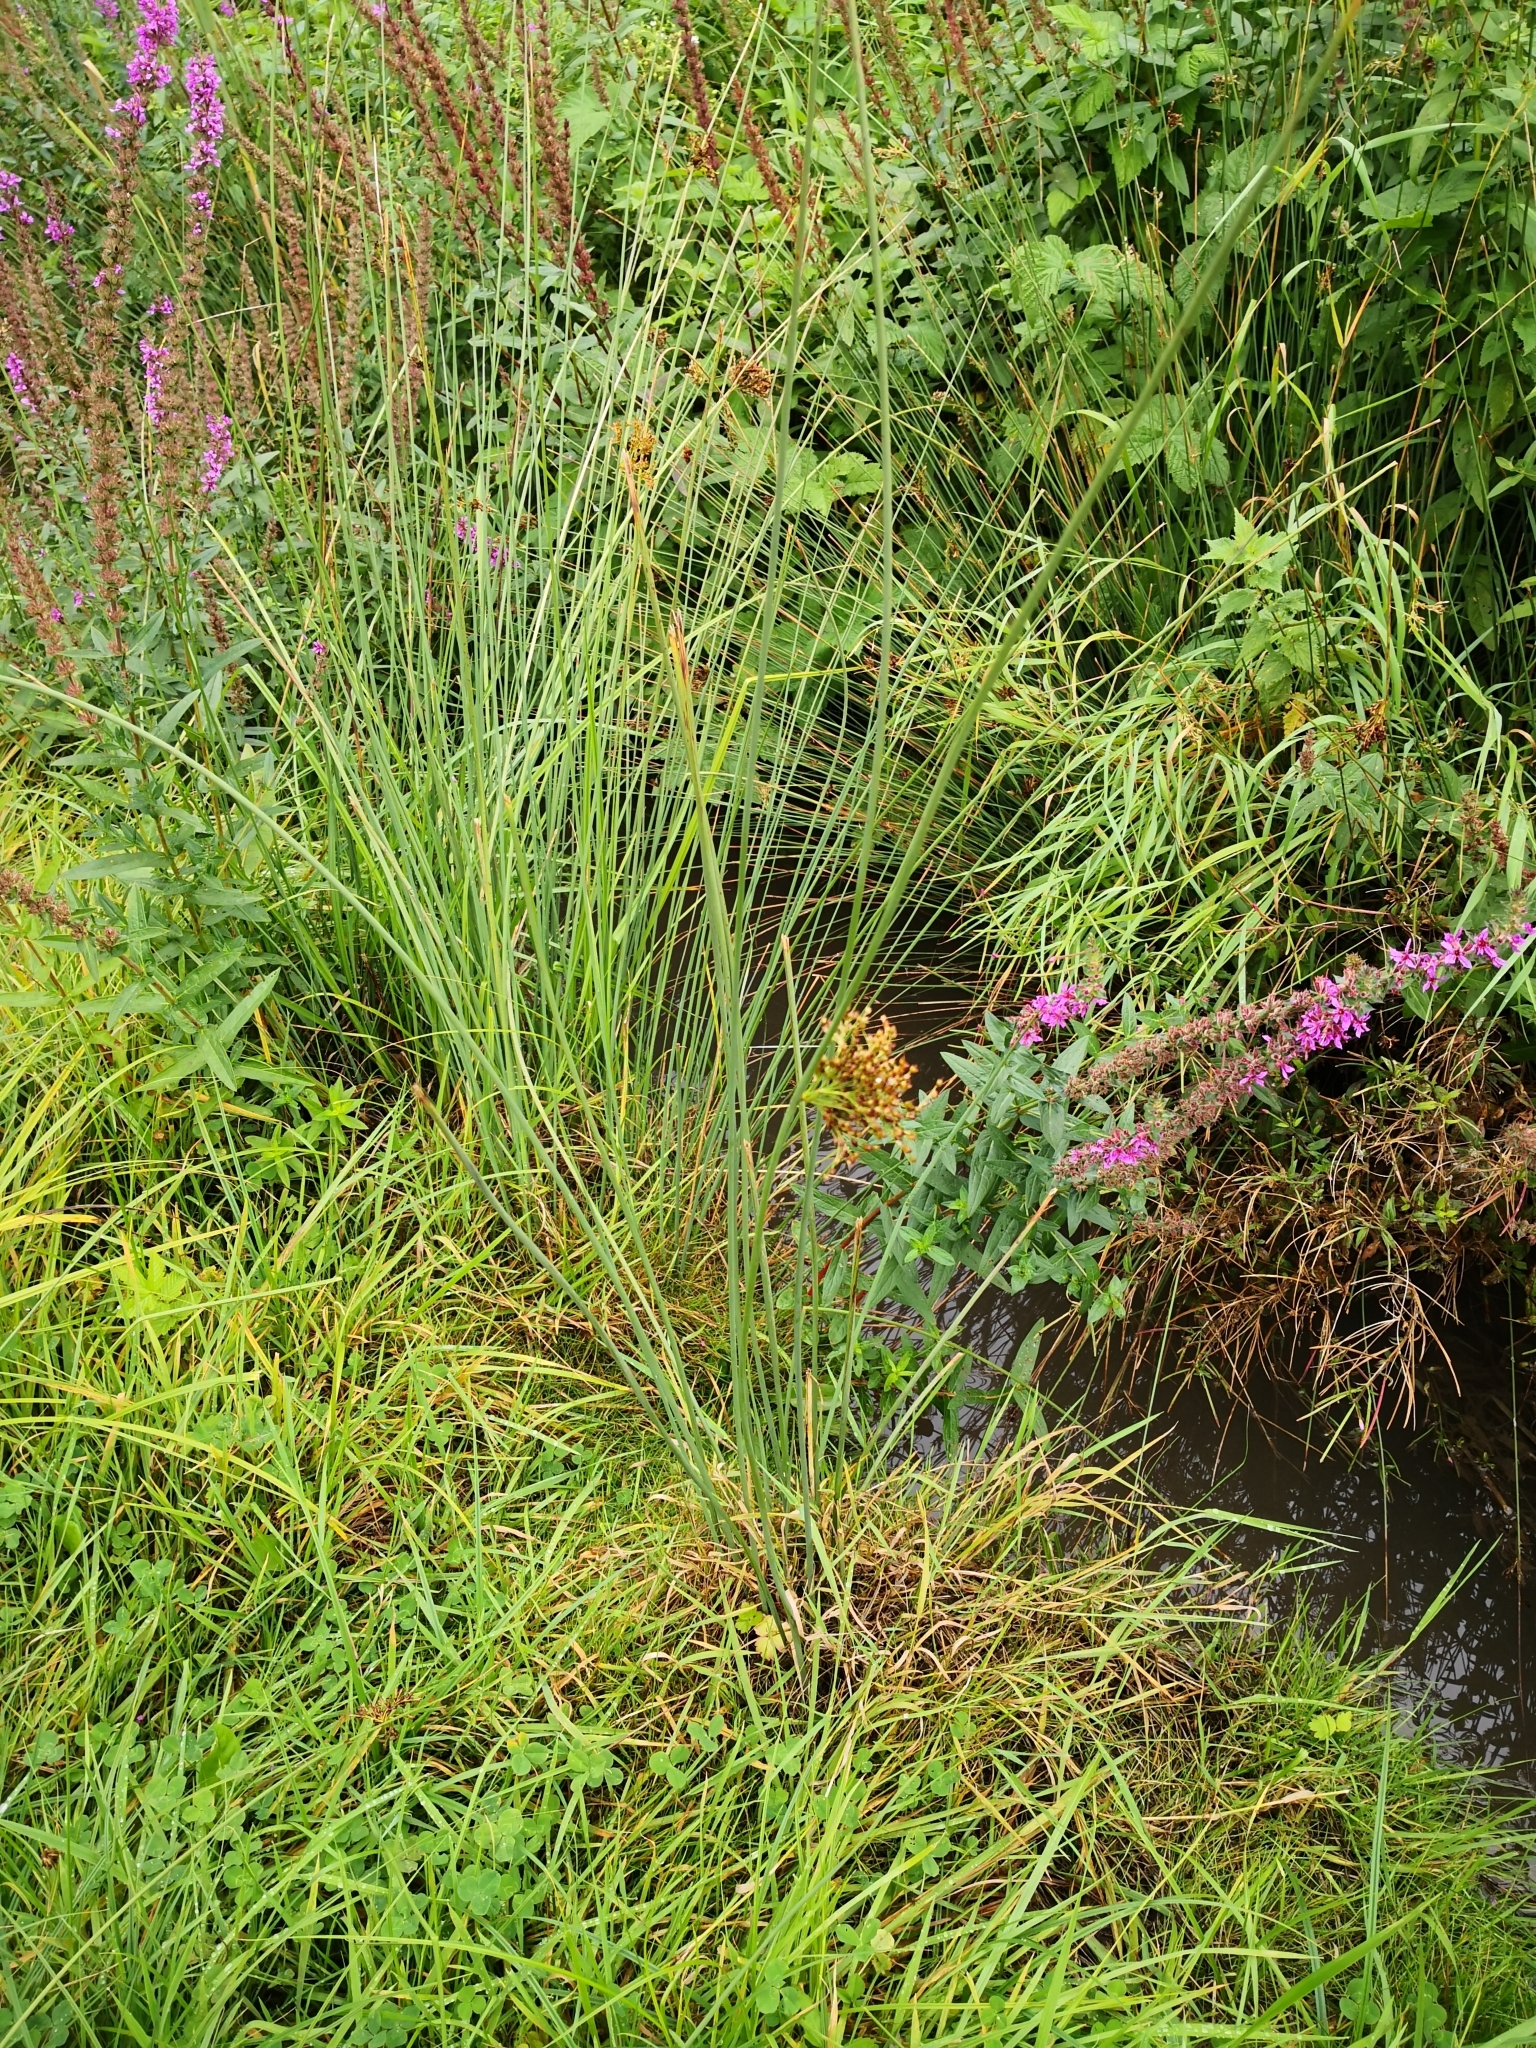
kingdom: Plantae
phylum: Tracheophyta
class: Liliopsida
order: Poales
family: Juncaceae
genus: Juncus
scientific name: Juncus effusus
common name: Soft rush
